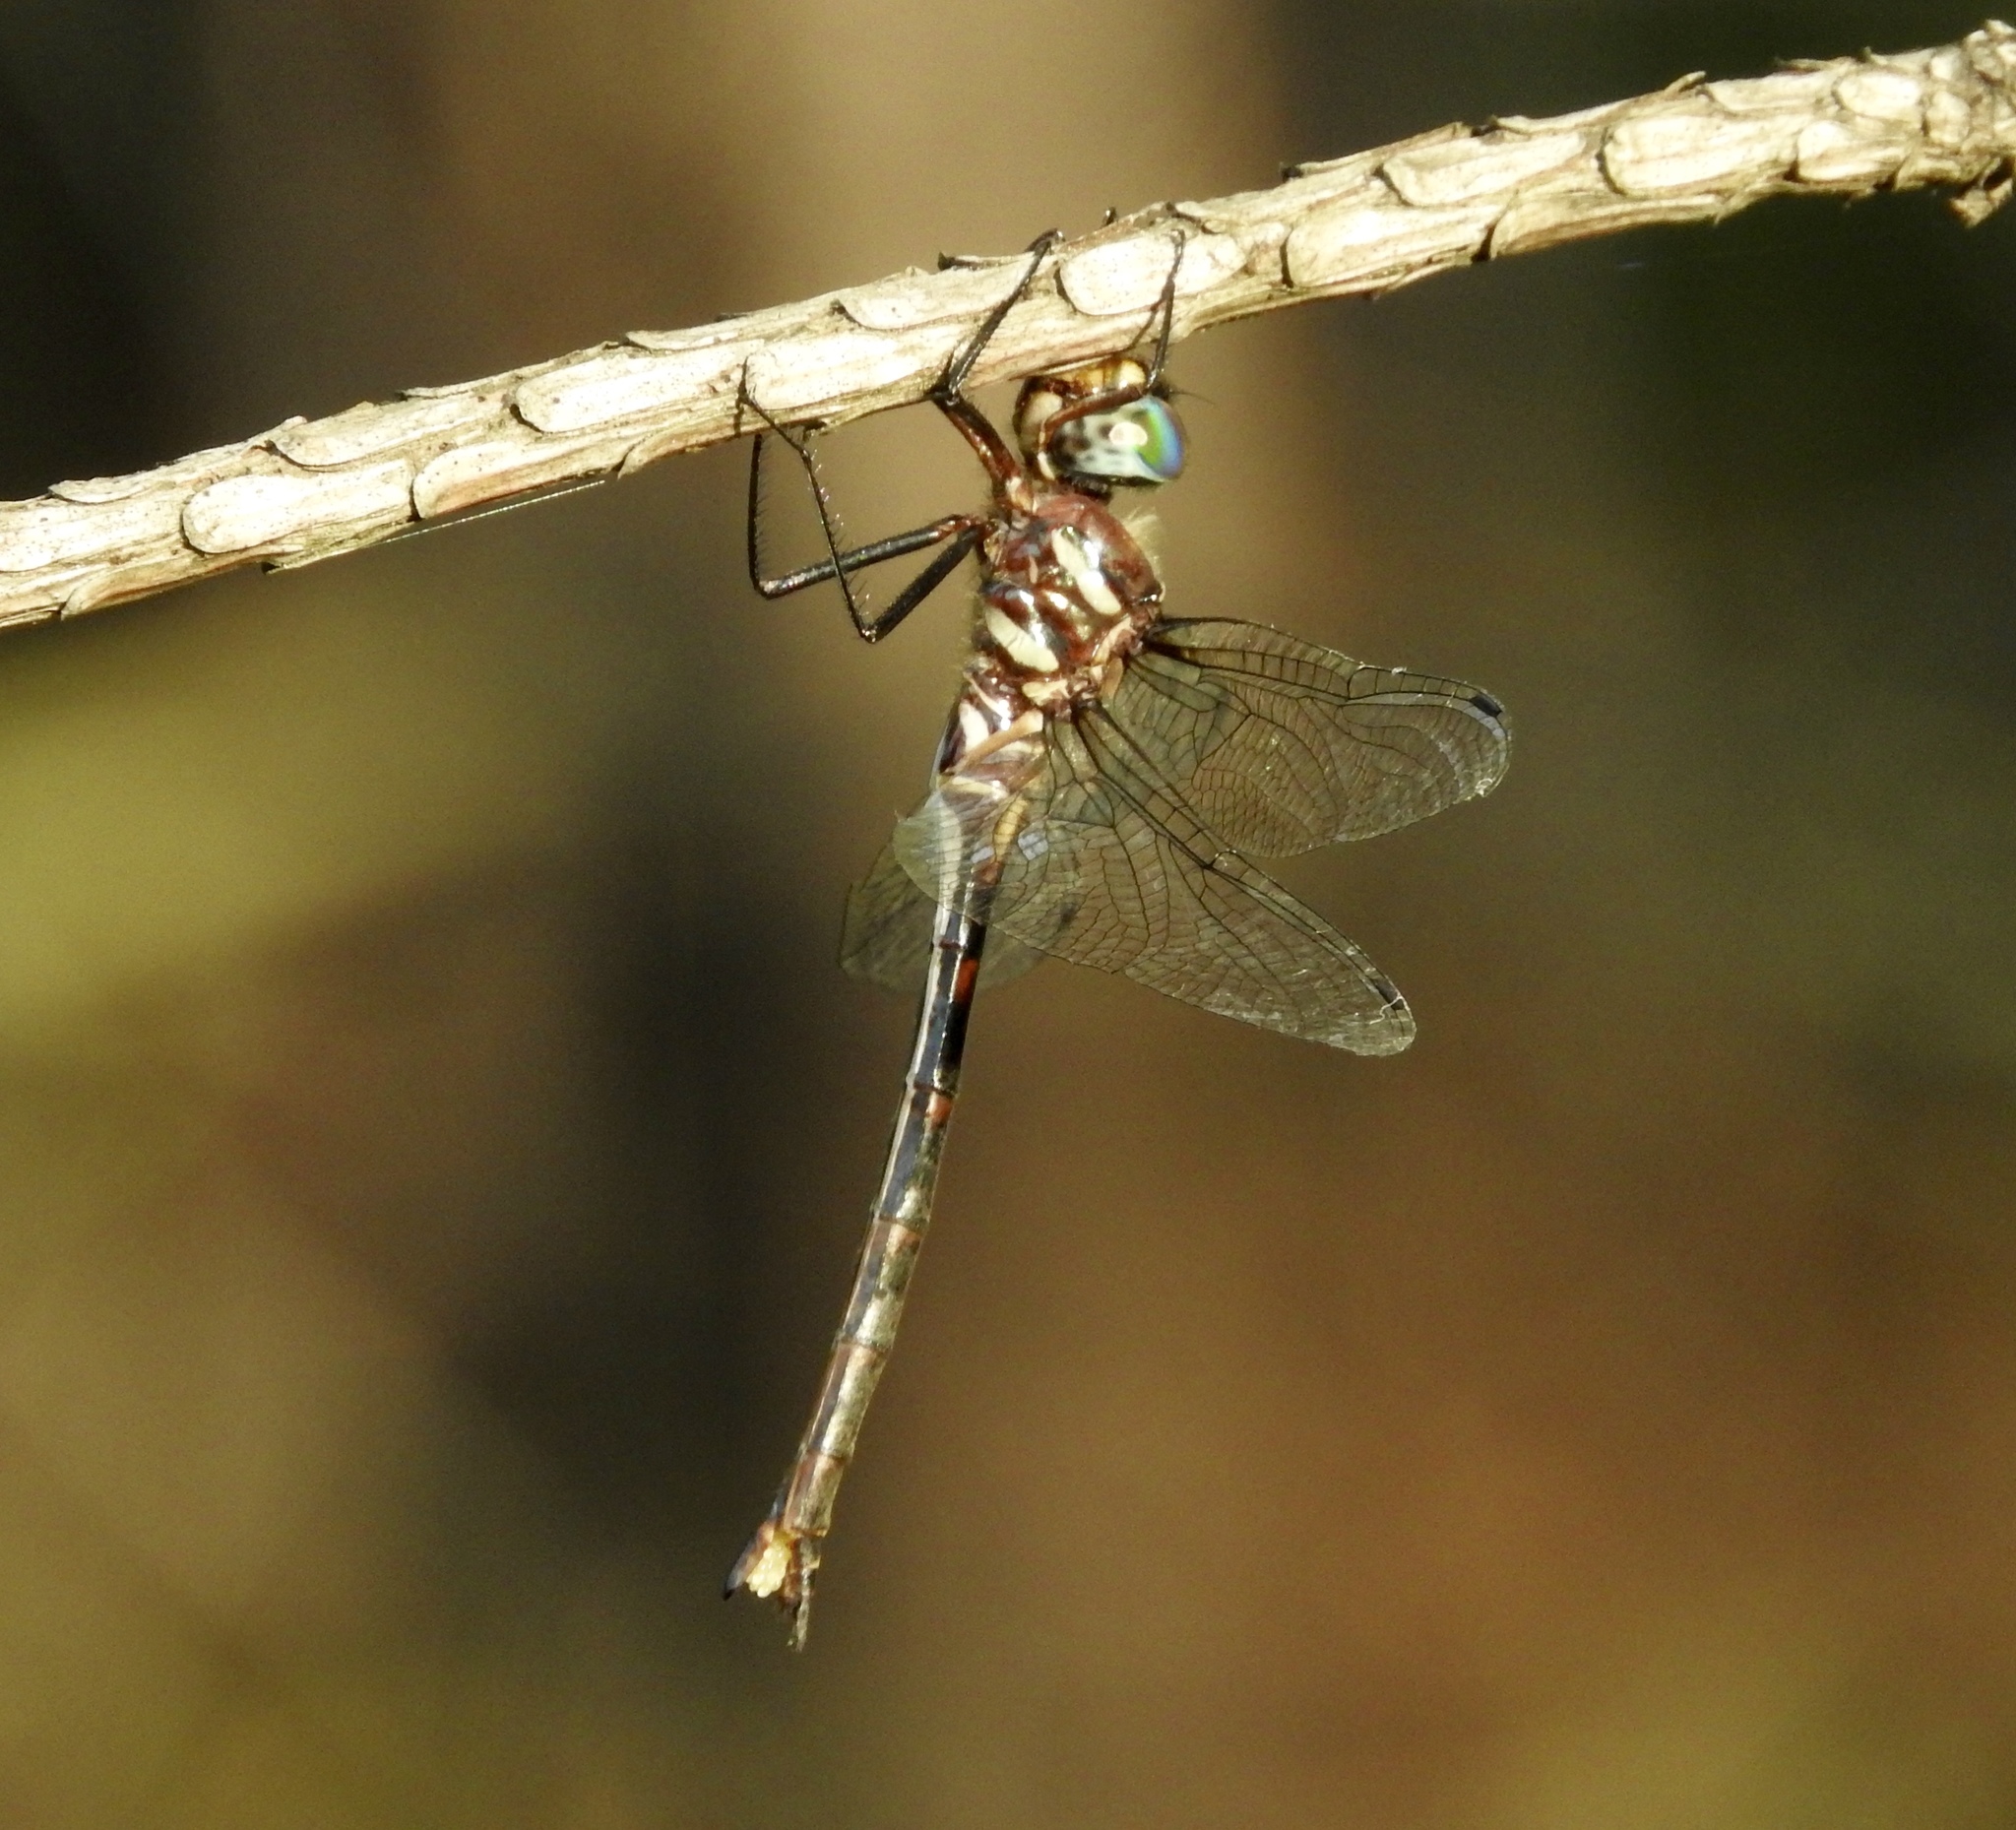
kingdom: Animalia
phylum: Arthropoda
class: Insecta
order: Odonata
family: Corduliidae
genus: Somatochlora
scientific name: Somatochlora margarita
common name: Texas emerald
